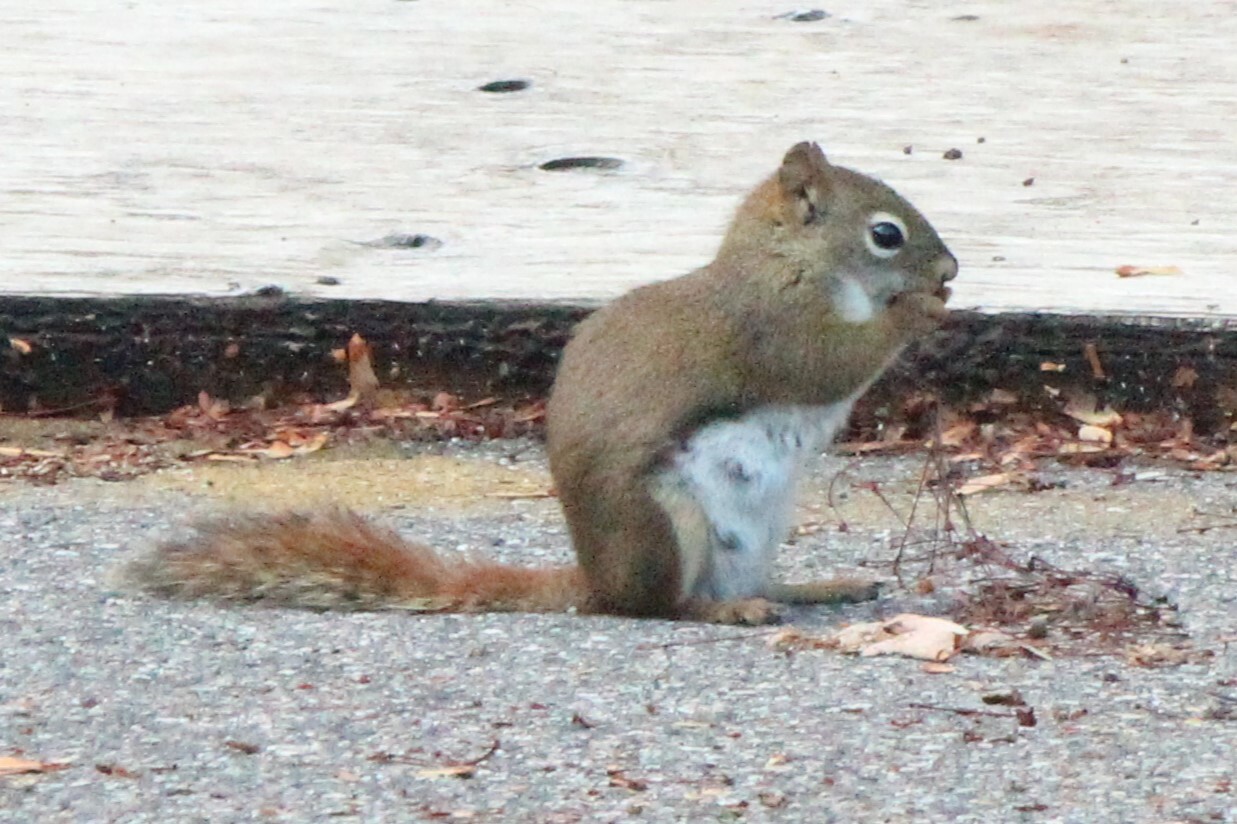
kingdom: Animalia
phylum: Chordata
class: Mammalia
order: Rodentia
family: Sciuridae
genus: Tamiasciurus
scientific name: Tamiasciurus hudsonicus
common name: Red squirrel
